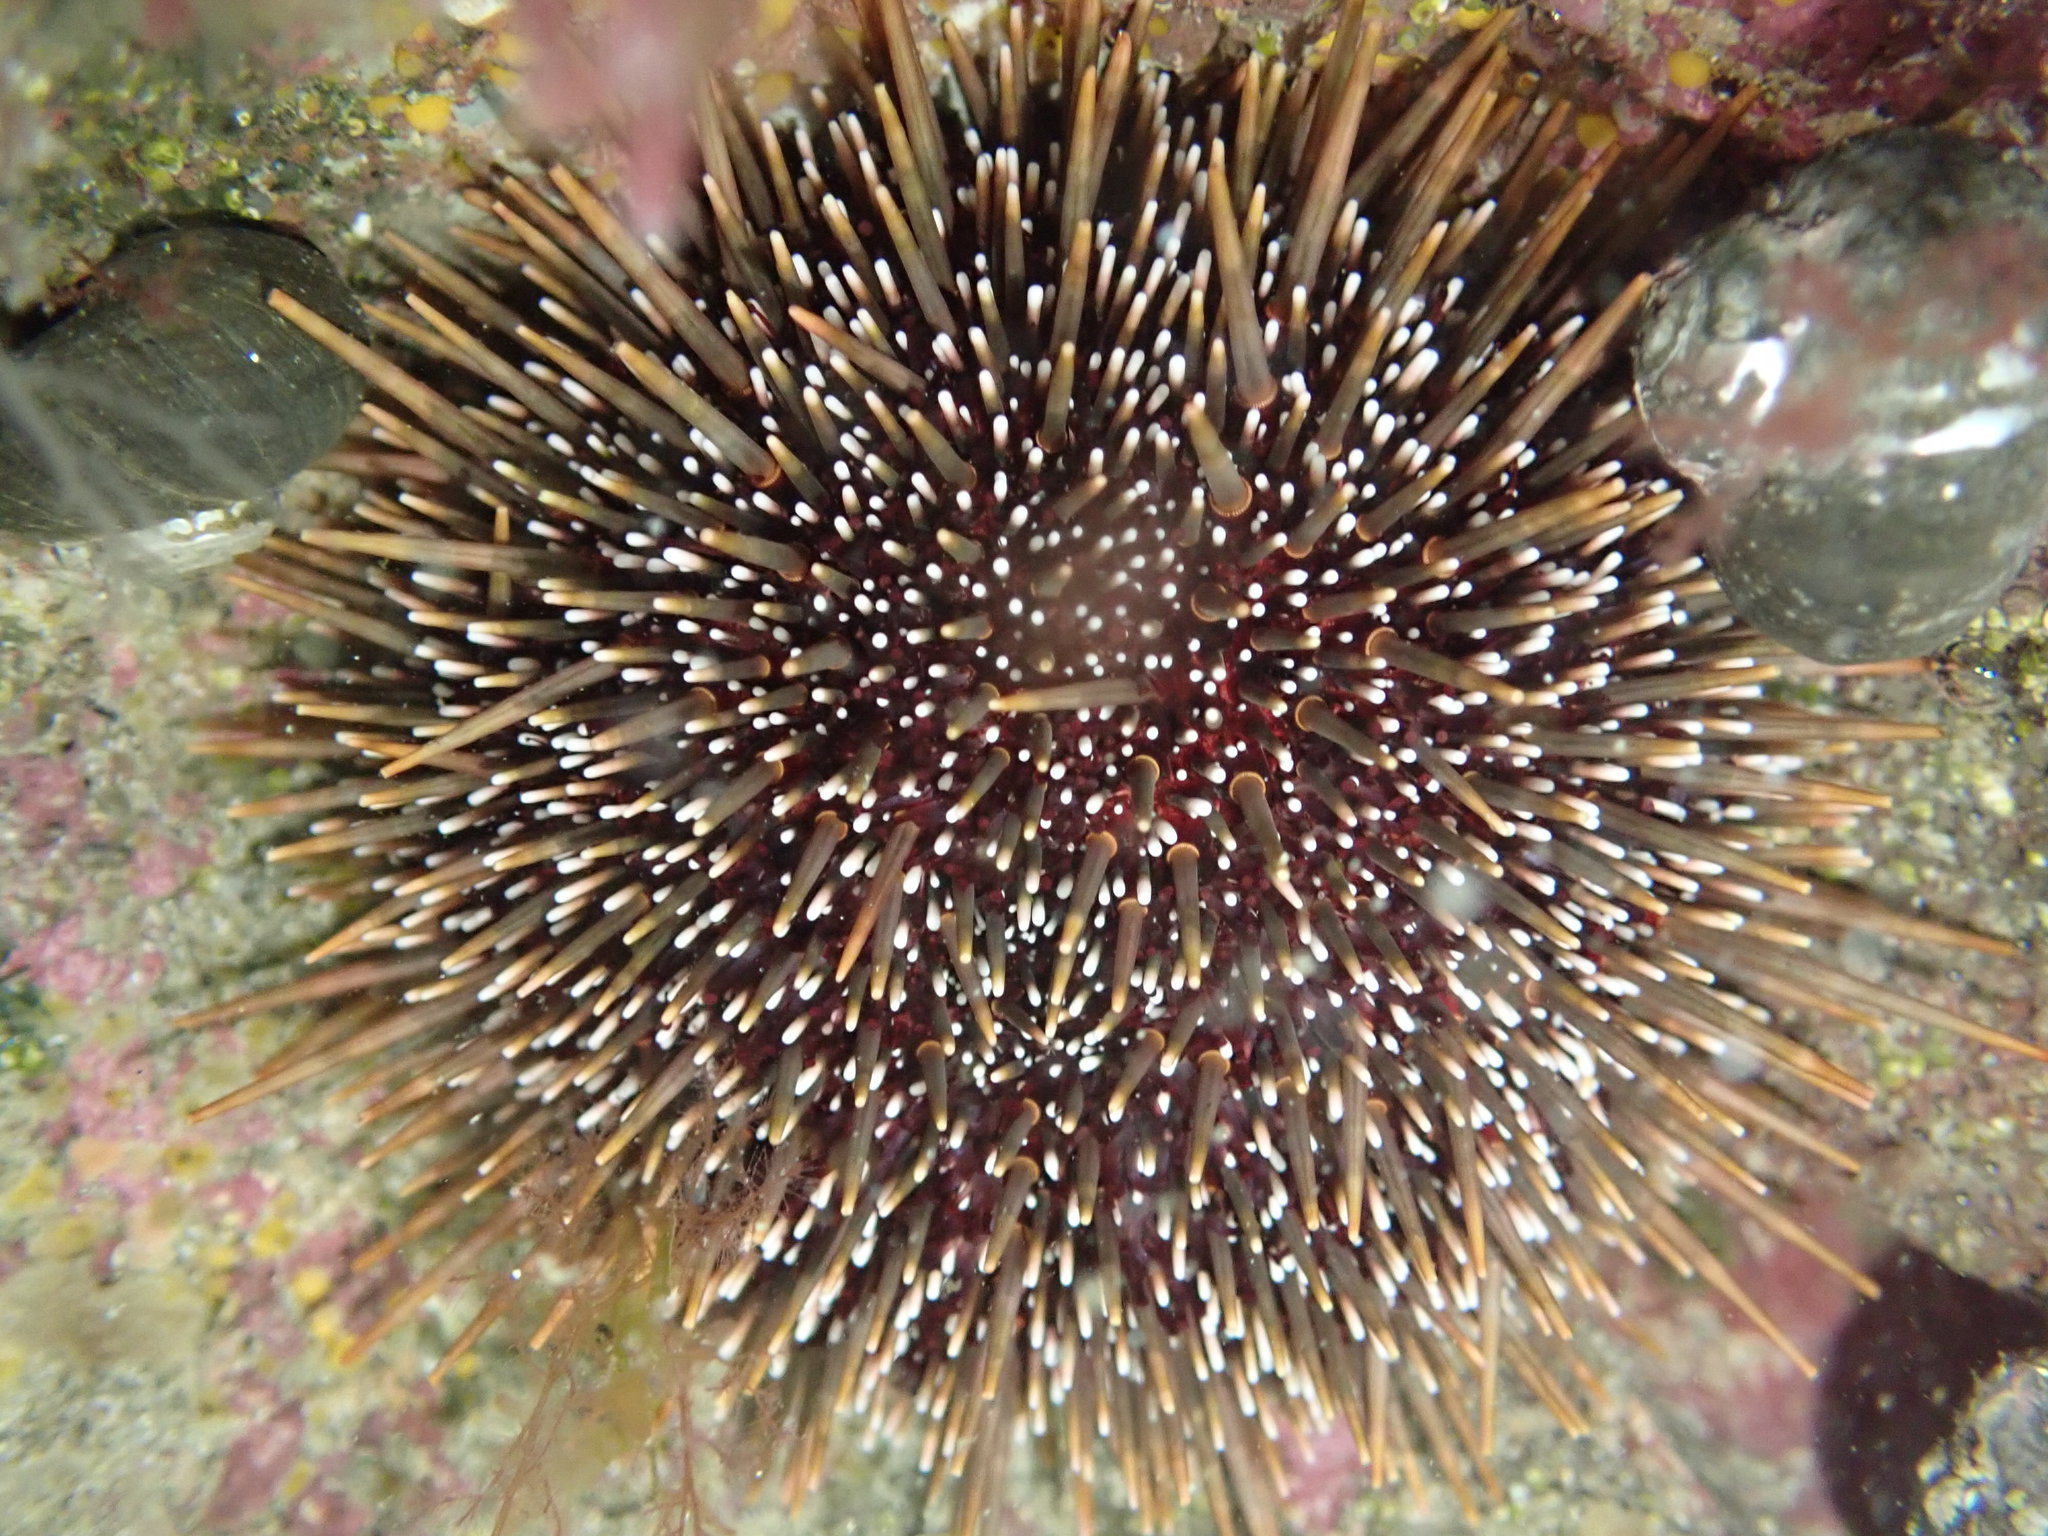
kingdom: Animalia
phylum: Echinodermata
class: Echinoidea
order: Camarodonta
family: Echinometridae
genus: Evechinus
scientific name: Evechinus chloroticus
